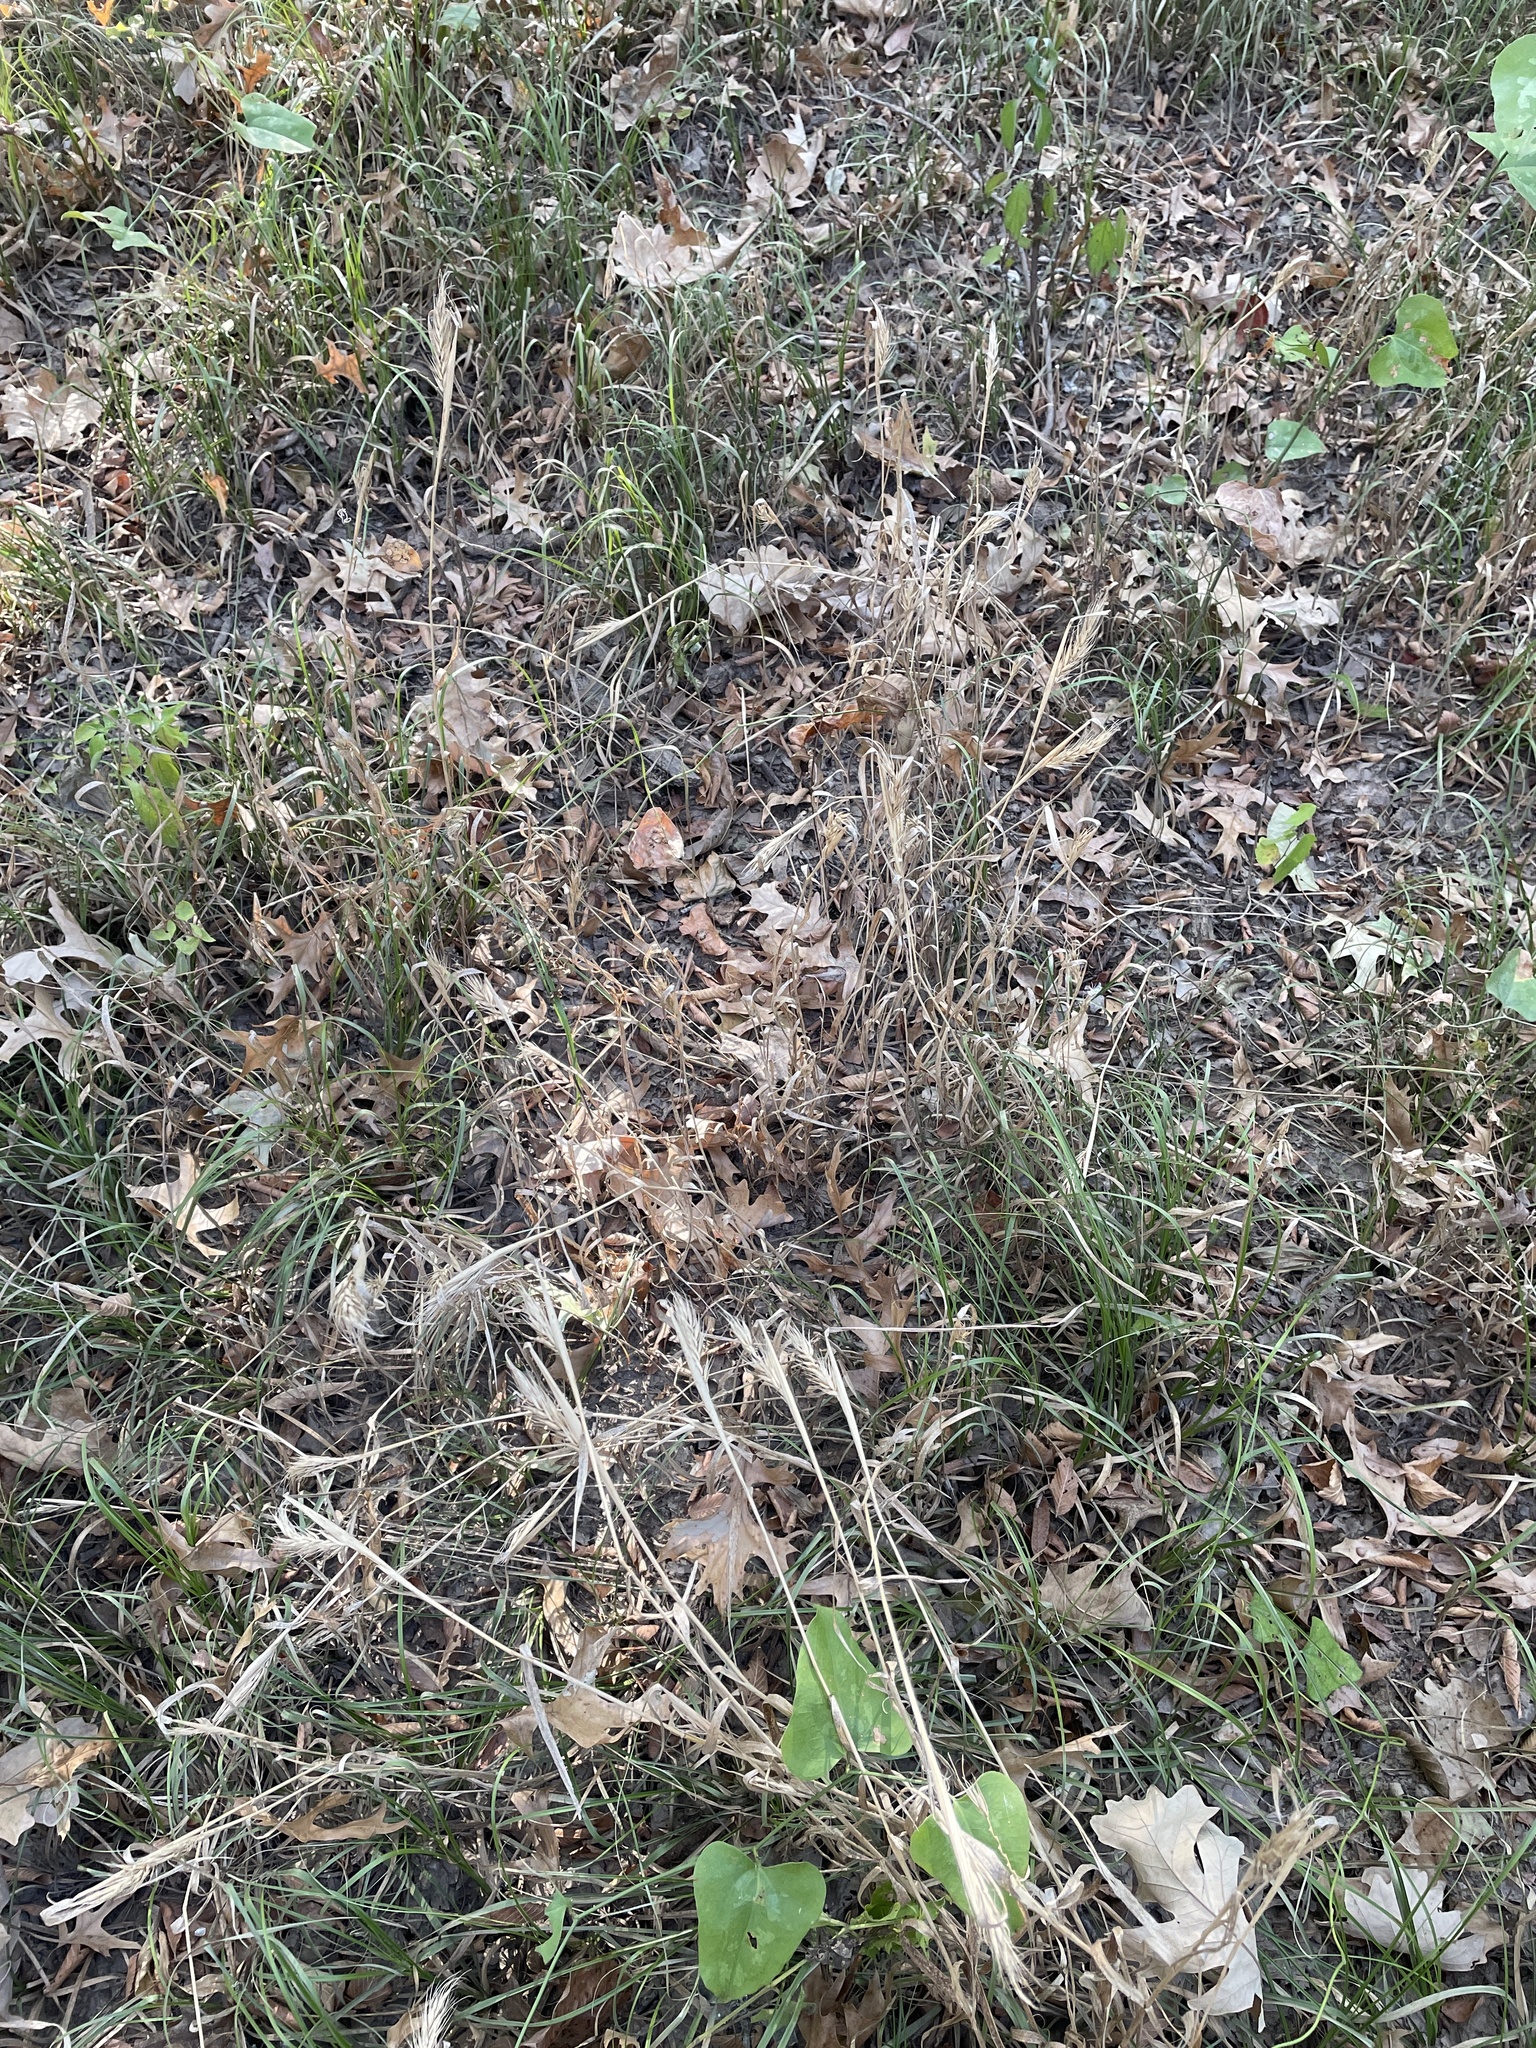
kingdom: Plantae
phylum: Tracheophyta
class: Liliopsida
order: Poales
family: Poaceae
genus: Elymus
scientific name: Elymus virginicus
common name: Common eastern wildrye
